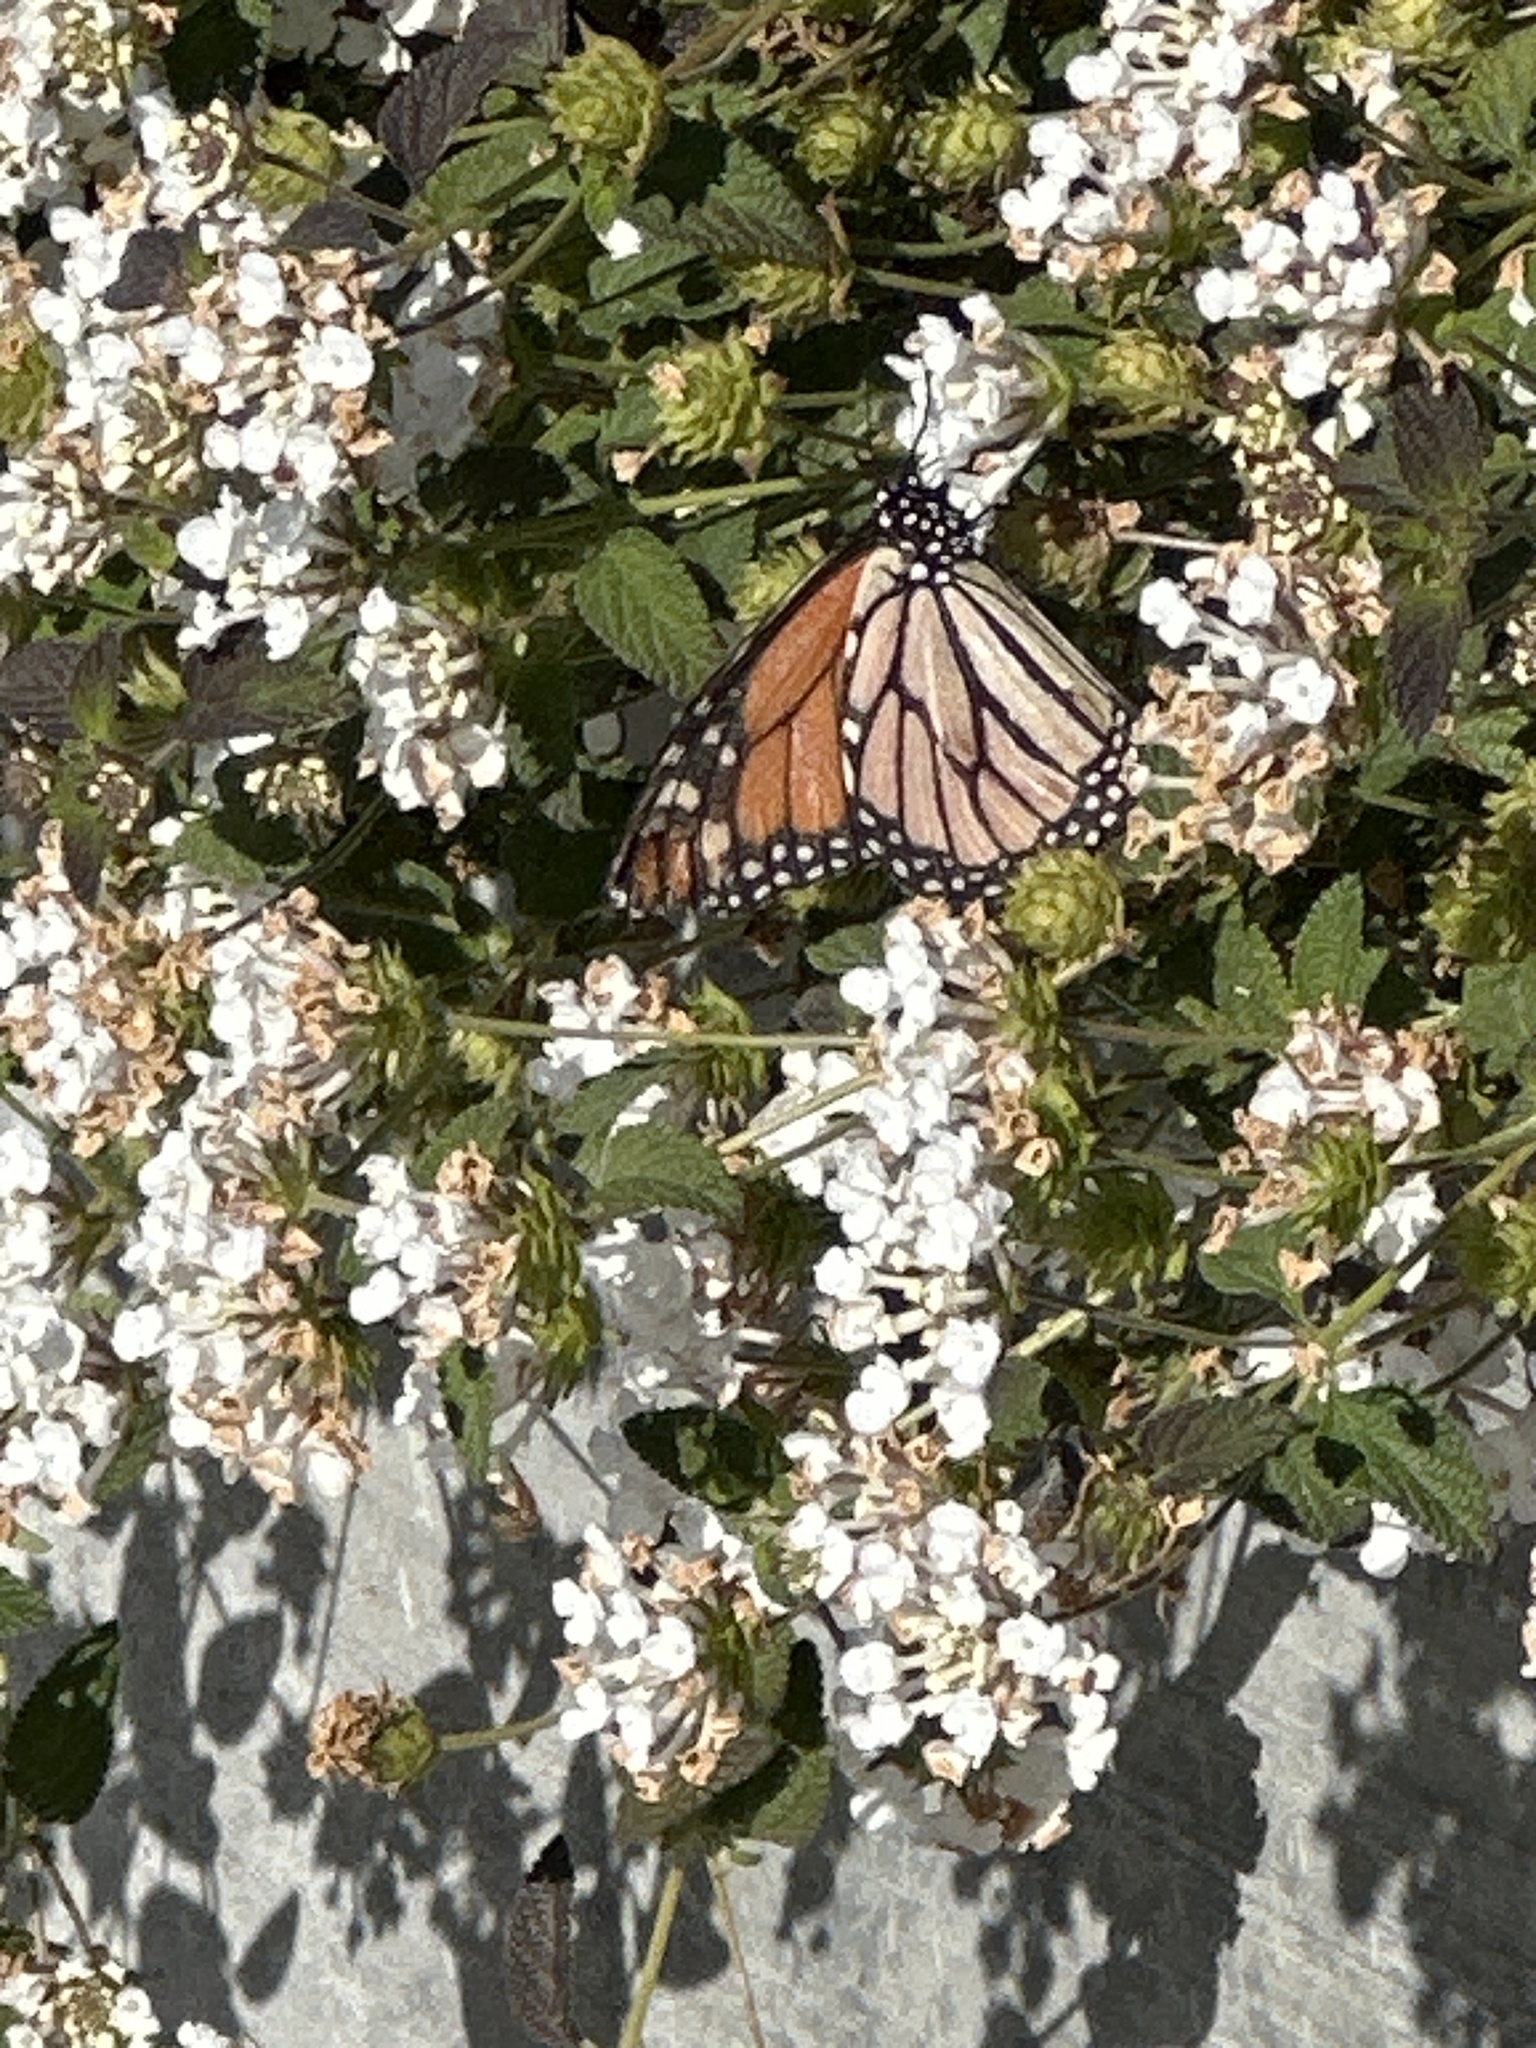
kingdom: Animalia
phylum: Arthropoda
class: Insecta
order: Lepidoptera
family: Nymphalidae
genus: Danaus
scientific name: Danaus plexippus
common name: Monarch
